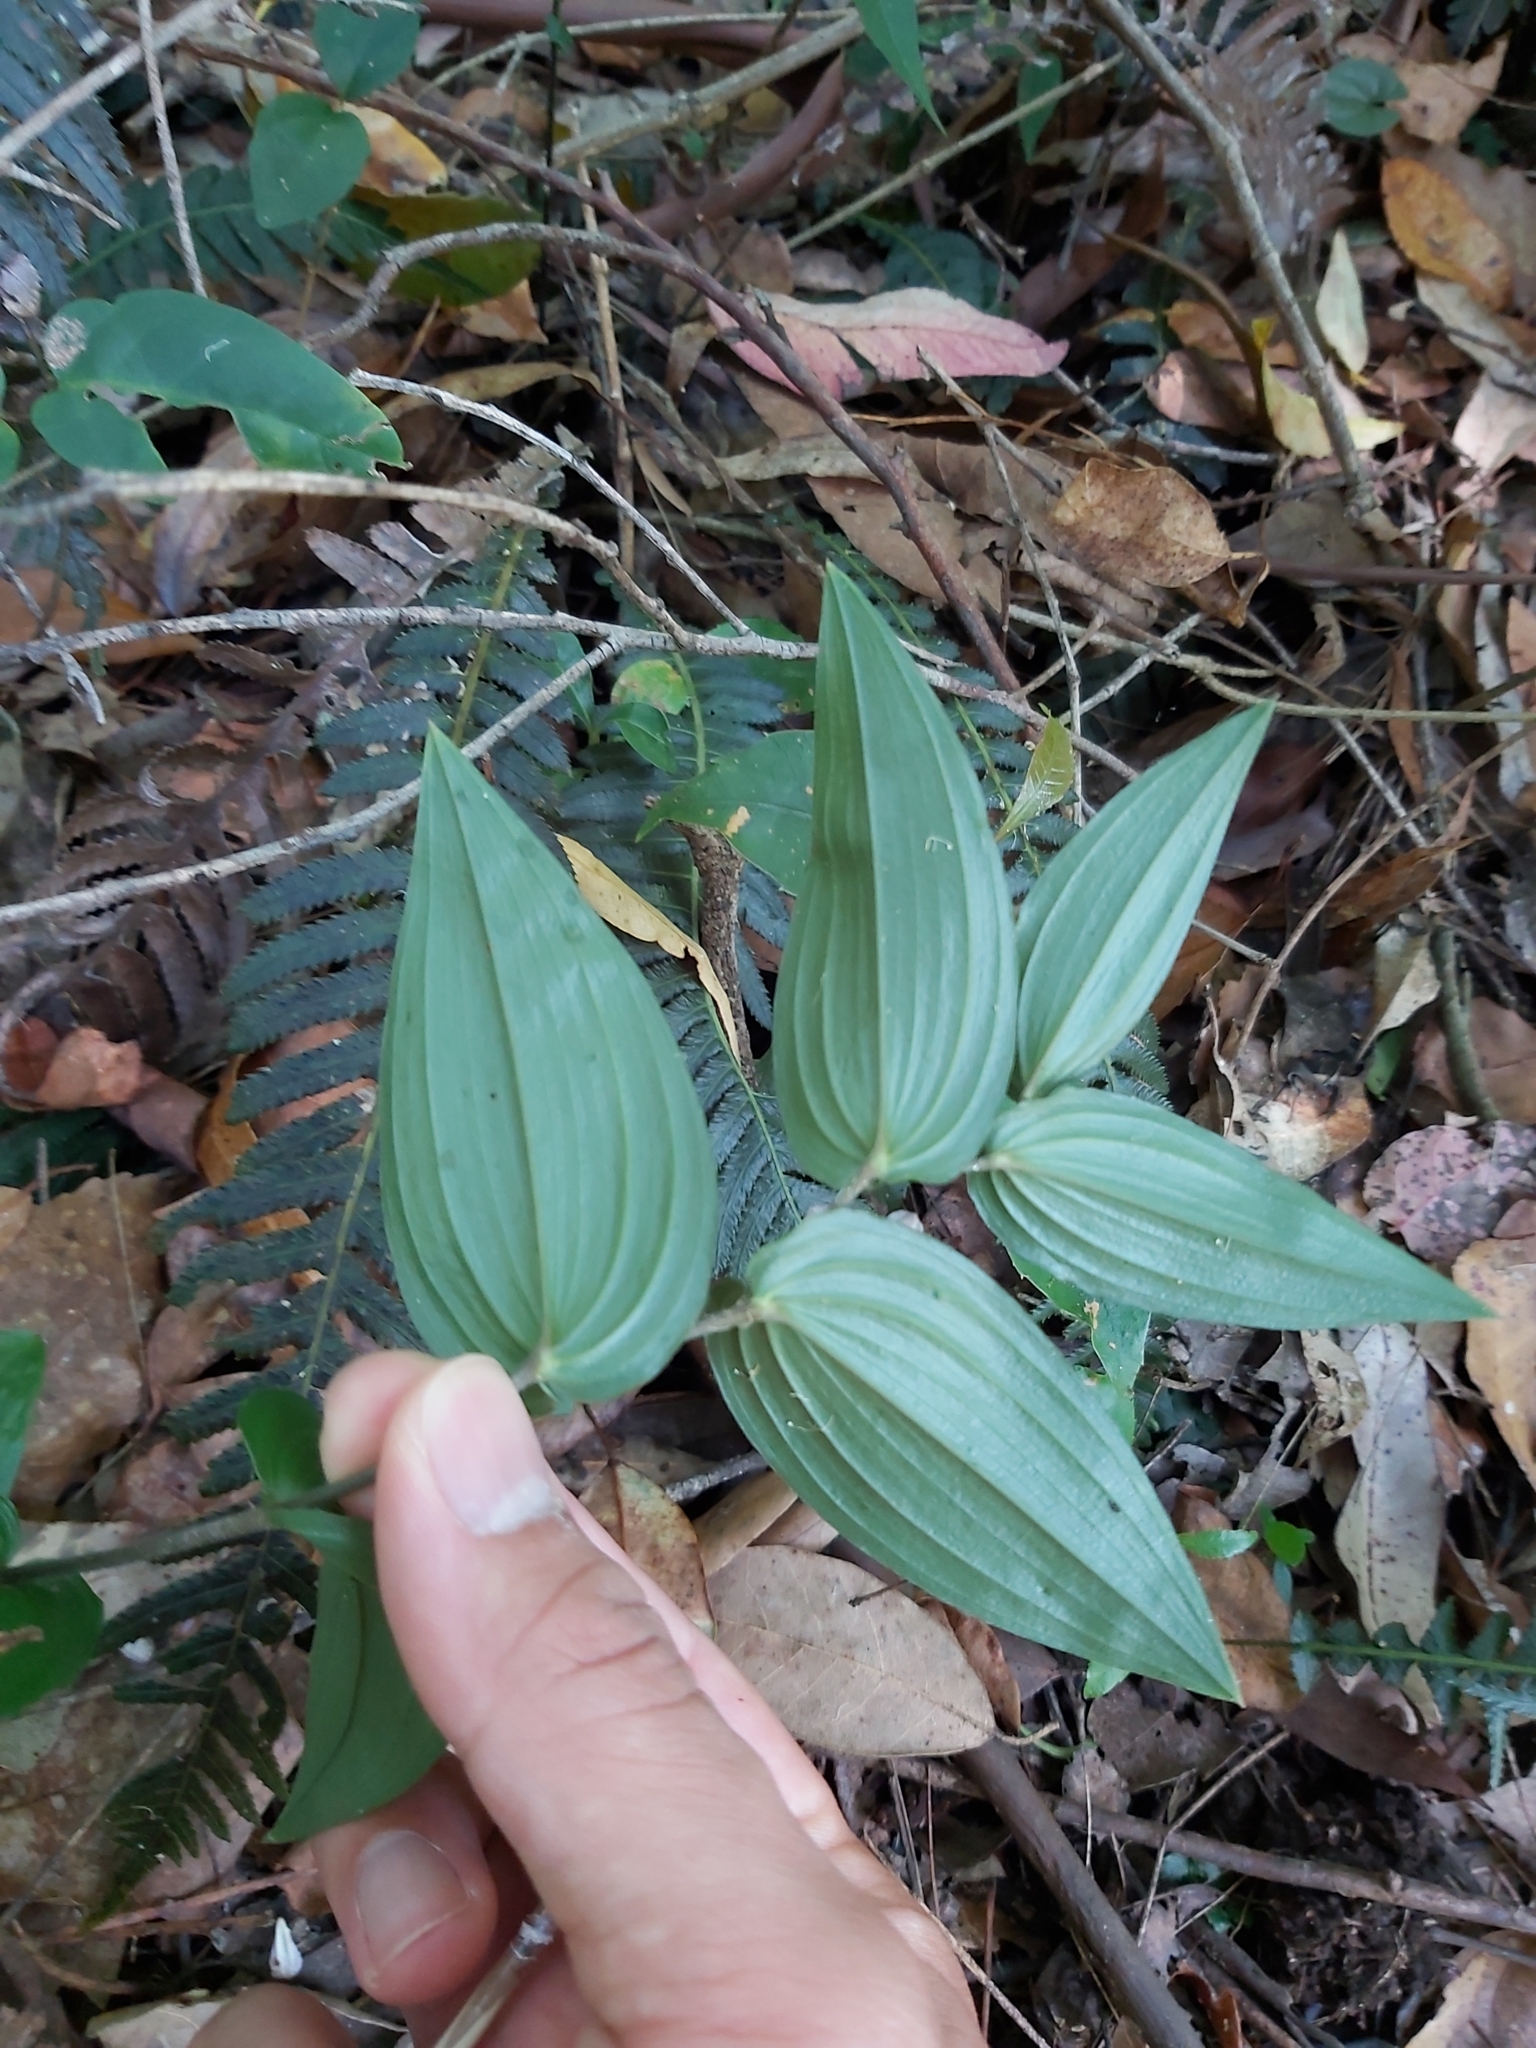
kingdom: Plantae
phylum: Tracheophyta
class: Liliopsida
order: Liliales
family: Colchicaceae
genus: Tripladenia
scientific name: Tripladenia cunninghamii
